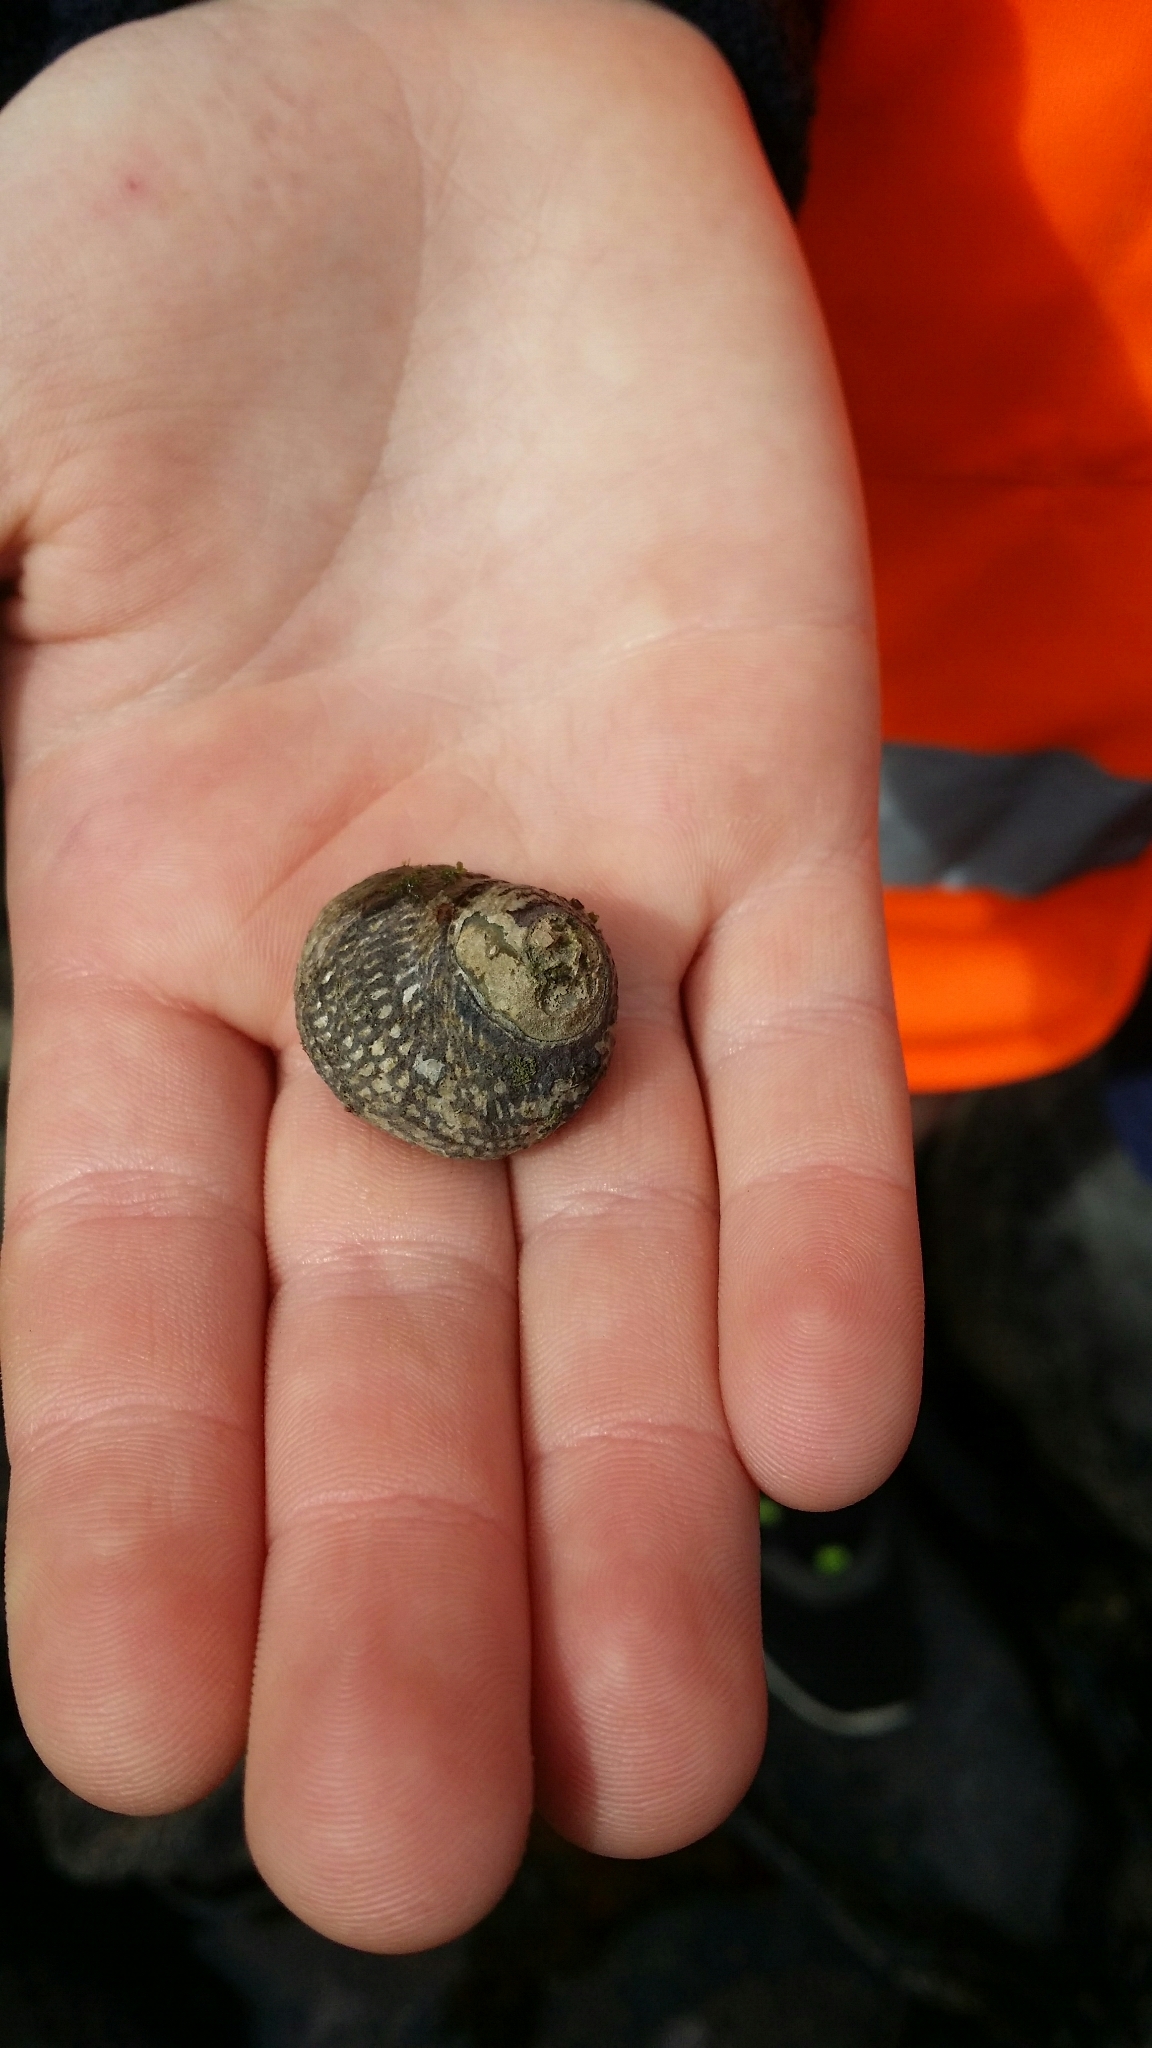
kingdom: Animalia
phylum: Mollusca
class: Gastropoda
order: Trochida
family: Trochidae
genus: Diloma
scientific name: Diloma aethiops
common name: Scorched monodont
